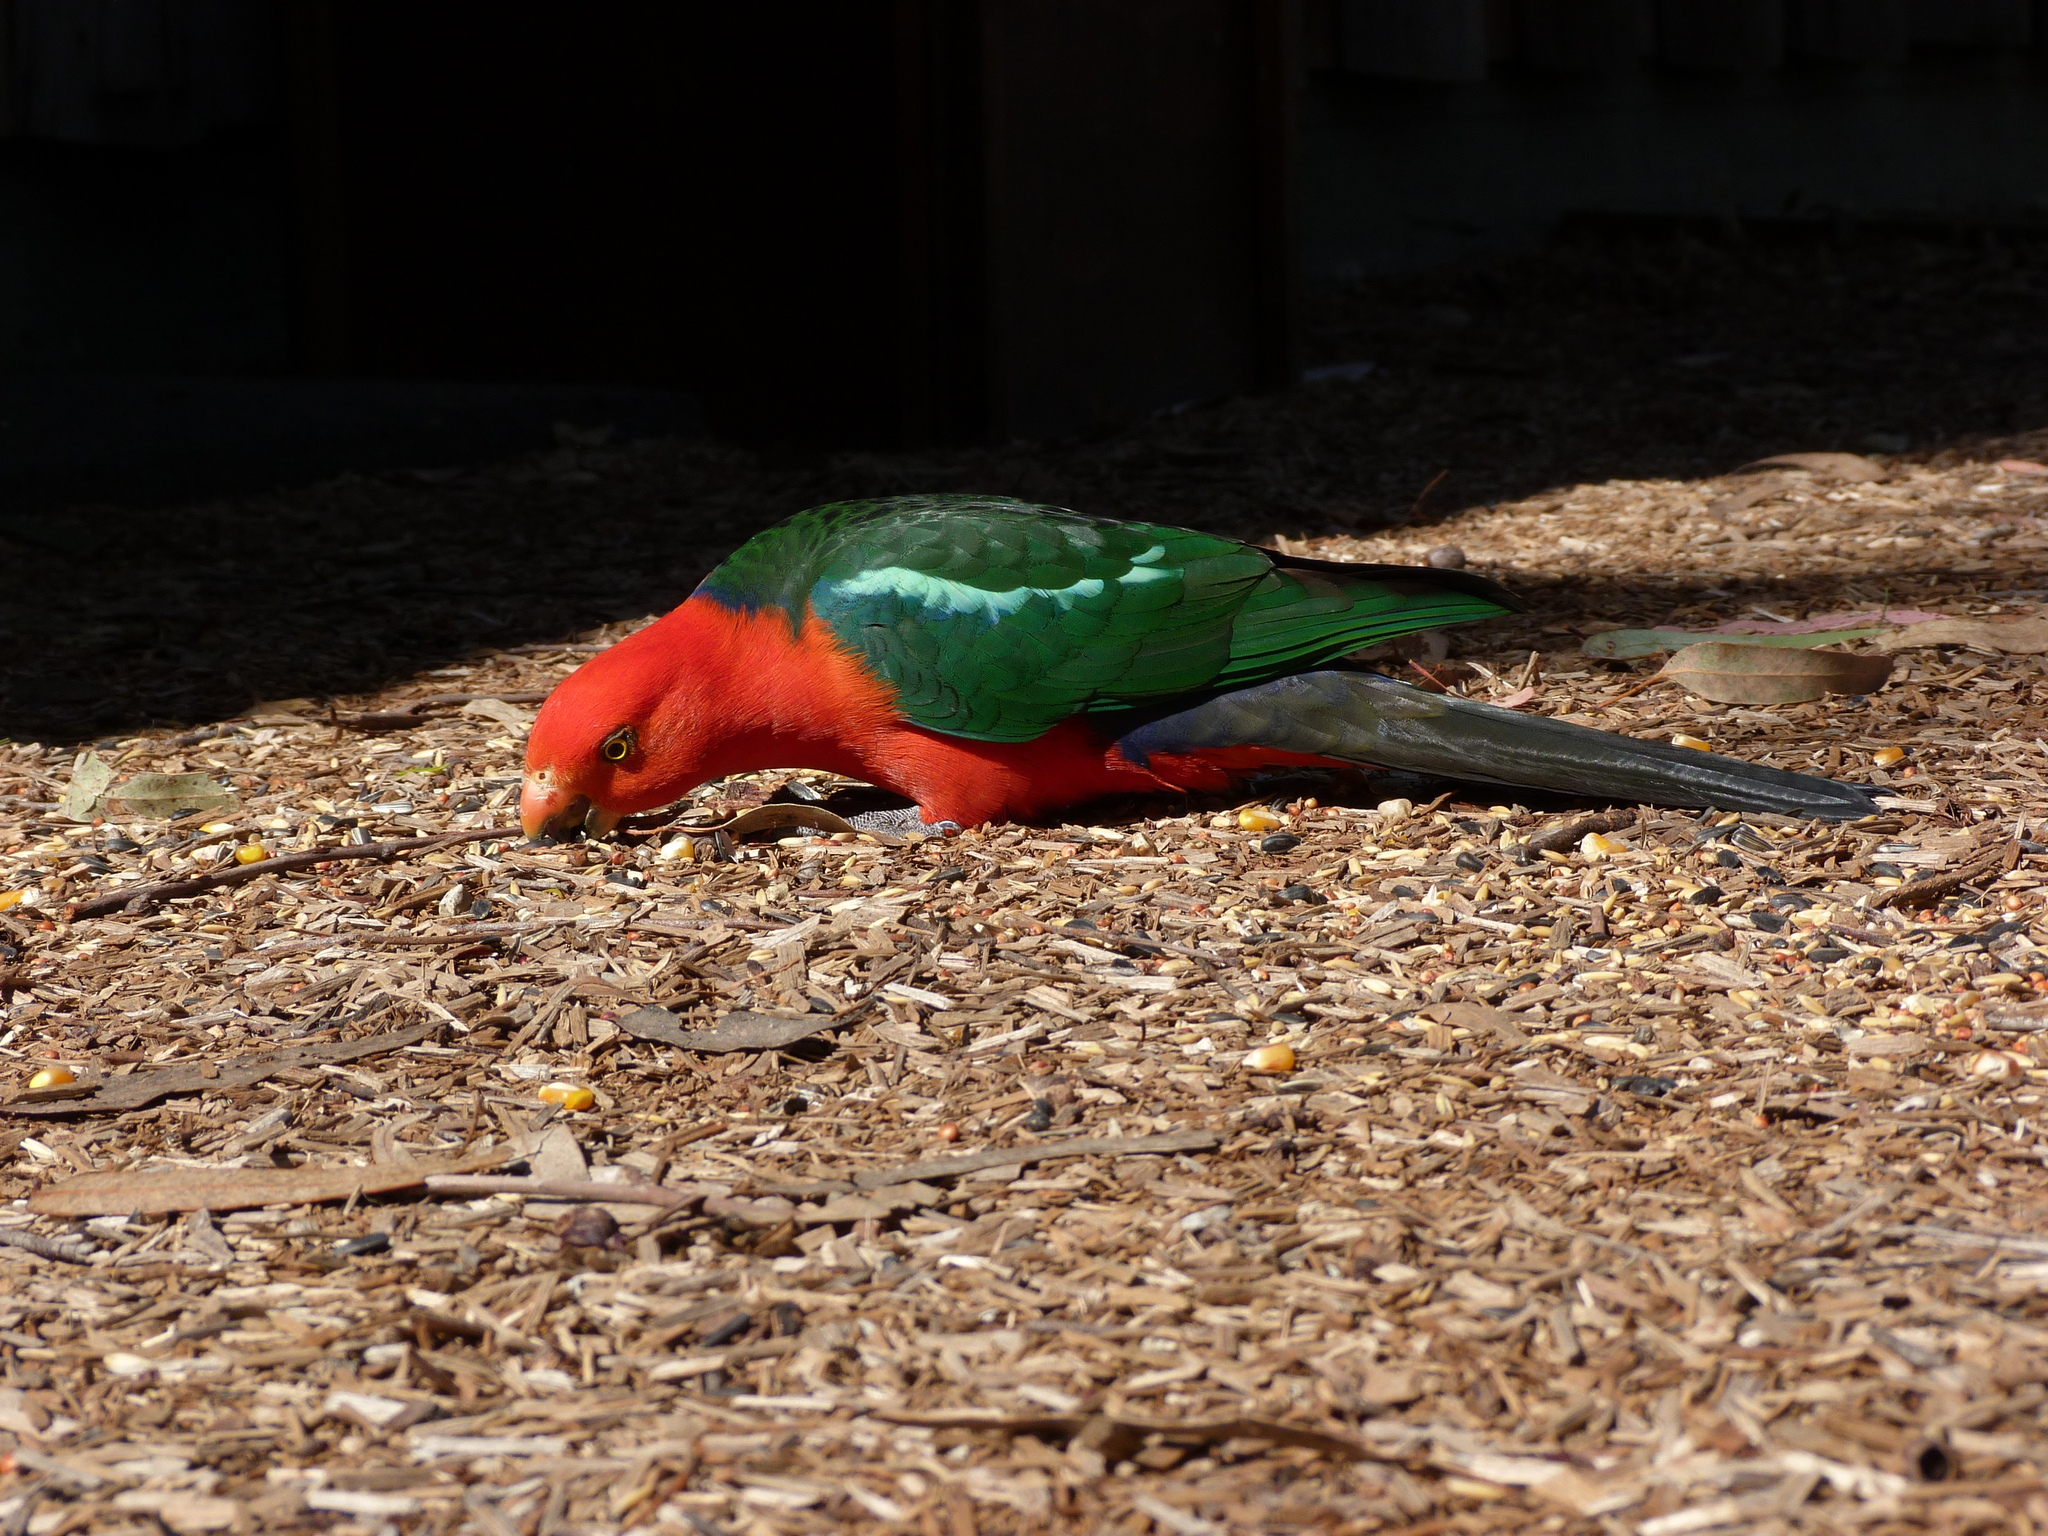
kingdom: Animalia
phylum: Chordata
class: Aves
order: Psittaciformes
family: Psittacidae
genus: Alisterus
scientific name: Alisterus scapularis
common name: Australian king parrot
